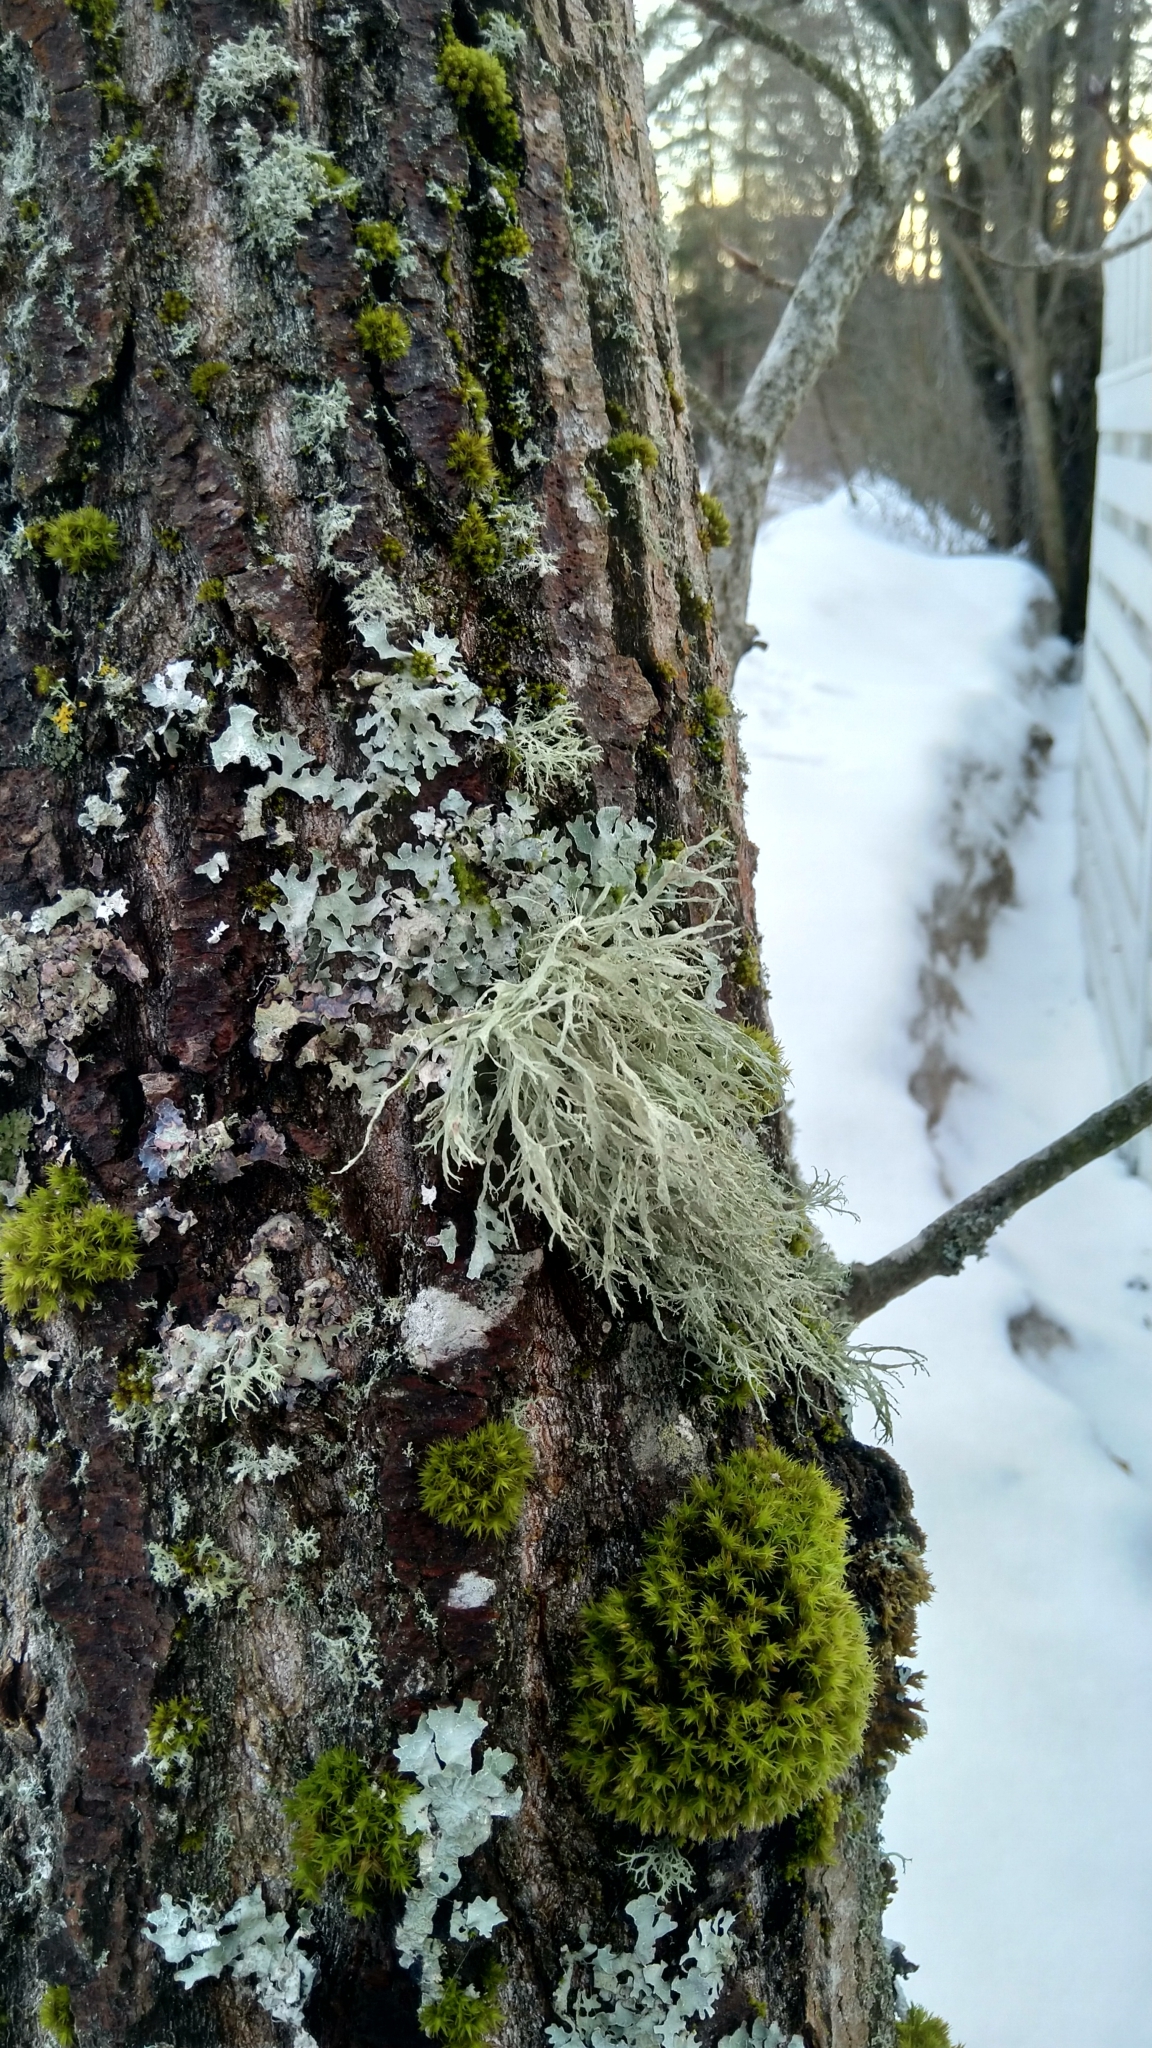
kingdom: Fungi
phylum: Ascomycota
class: Lecanoromycetes
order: Lecanorales
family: Ramalinaceae
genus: Ramalina
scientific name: Ramalina farinacea
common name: Farinose cartilage lichen
